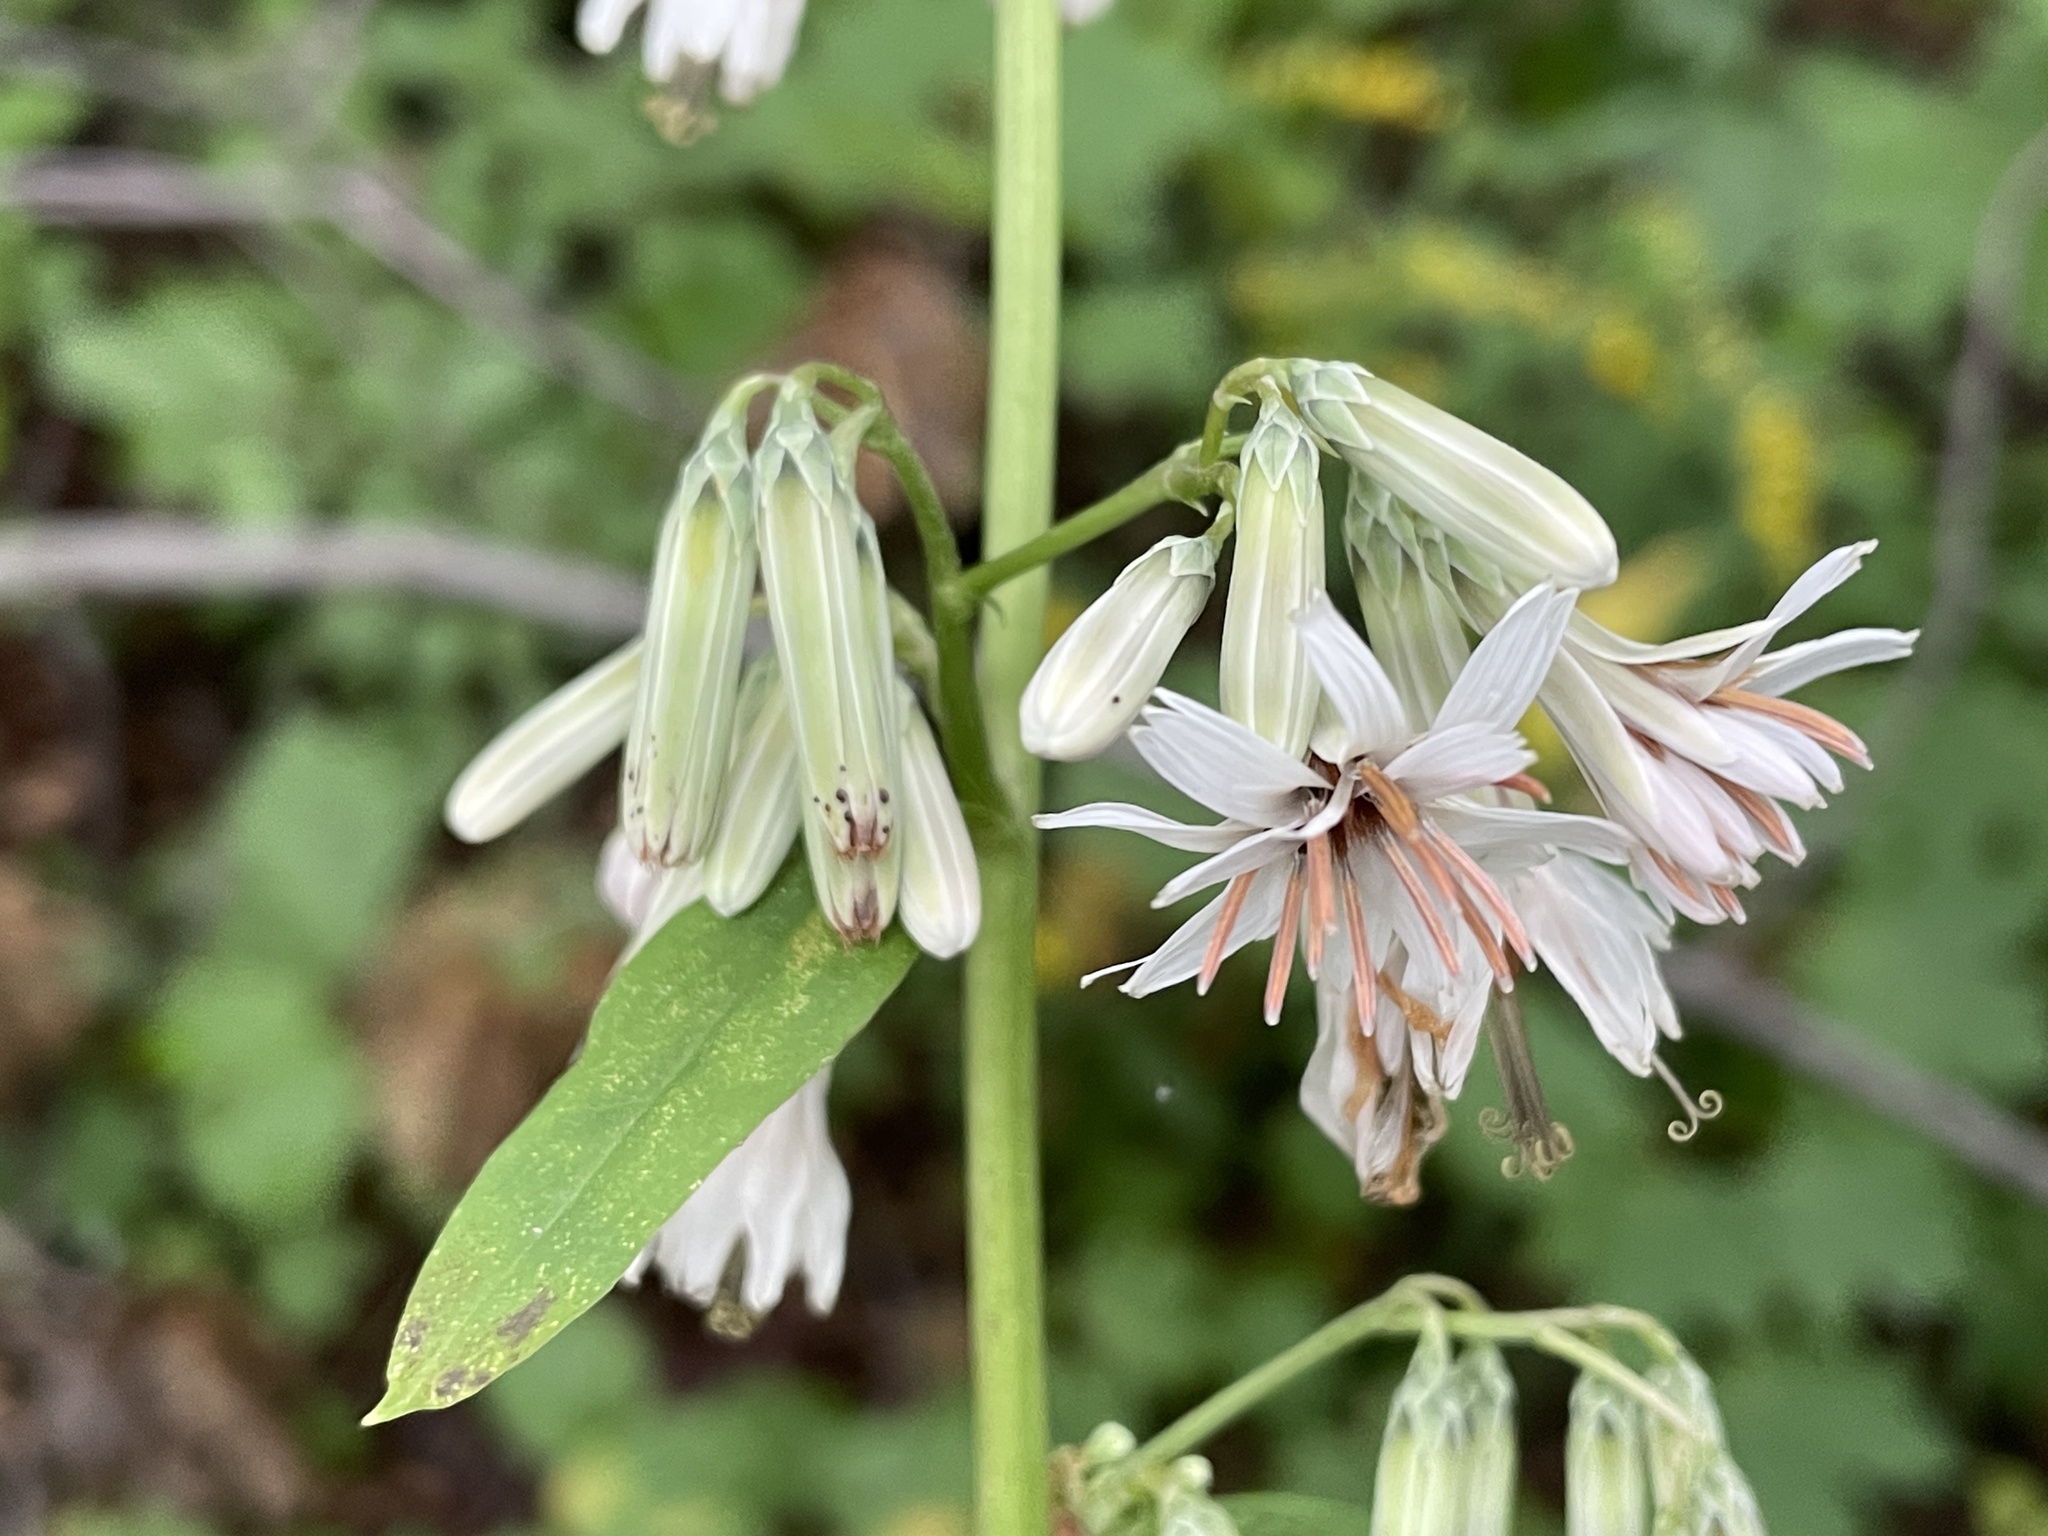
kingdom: Plantae
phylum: Tracheophyta
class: Magnoliopsida
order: Asterales
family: Asteraceae
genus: Nabalus
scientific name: Nabalus albus
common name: White rattlesnakeroot
